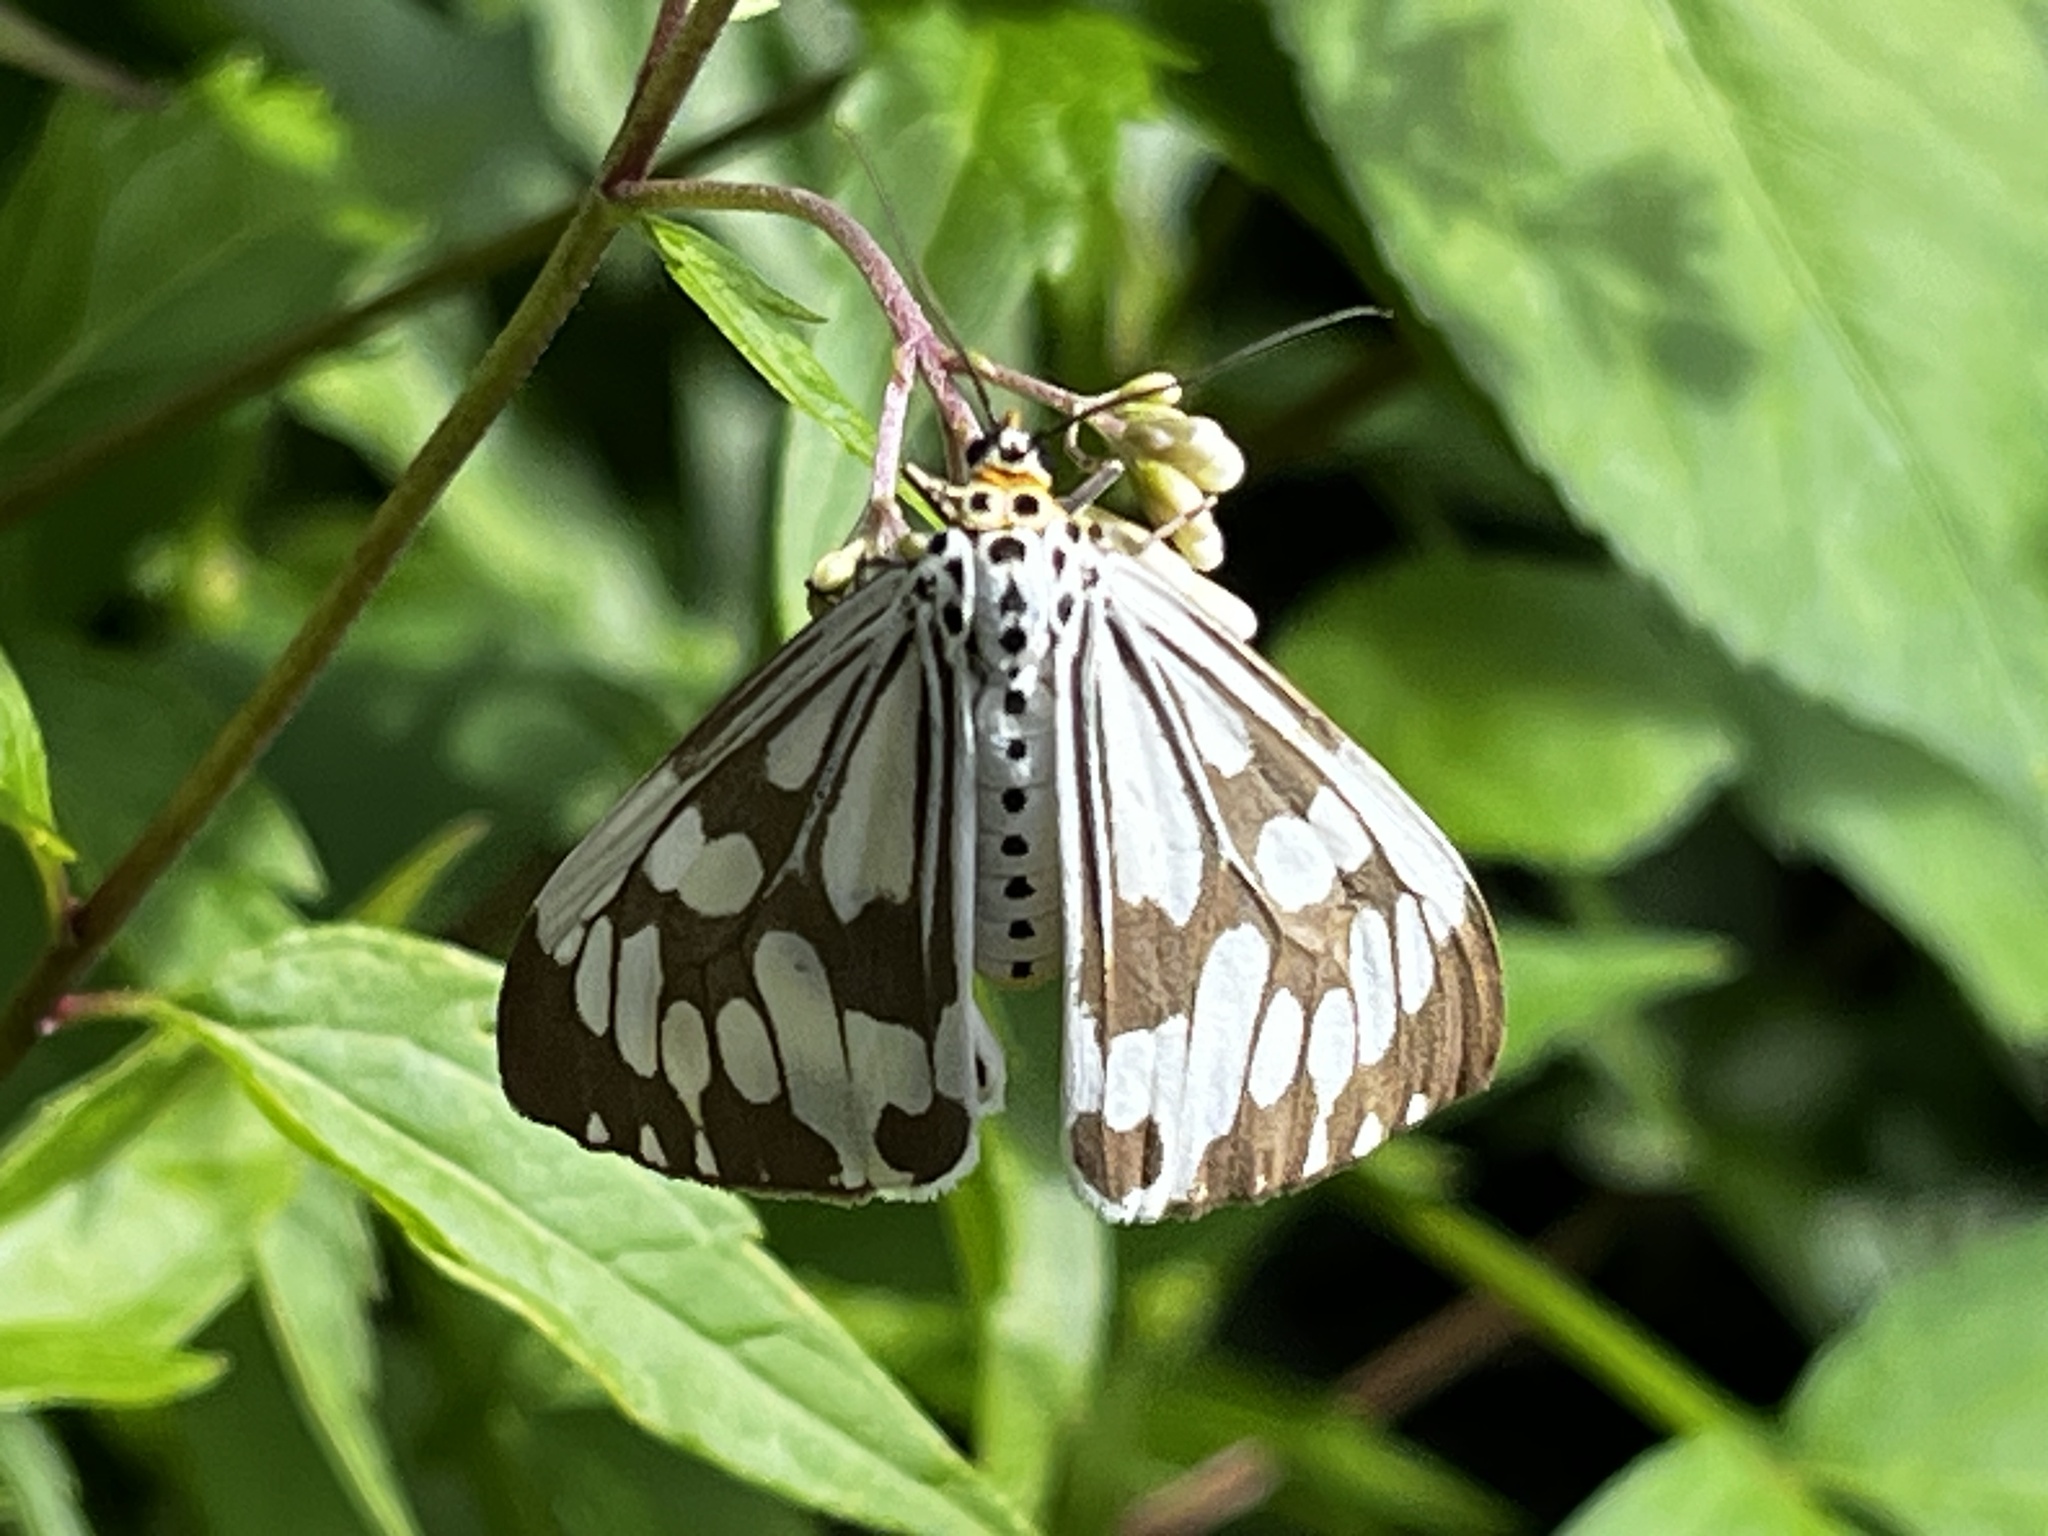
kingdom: Animalia
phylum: Arthropoda
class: Insecta
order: Lepidoptera
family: Erebidae
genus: Nyctemera
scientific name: Nyctemera adversata
